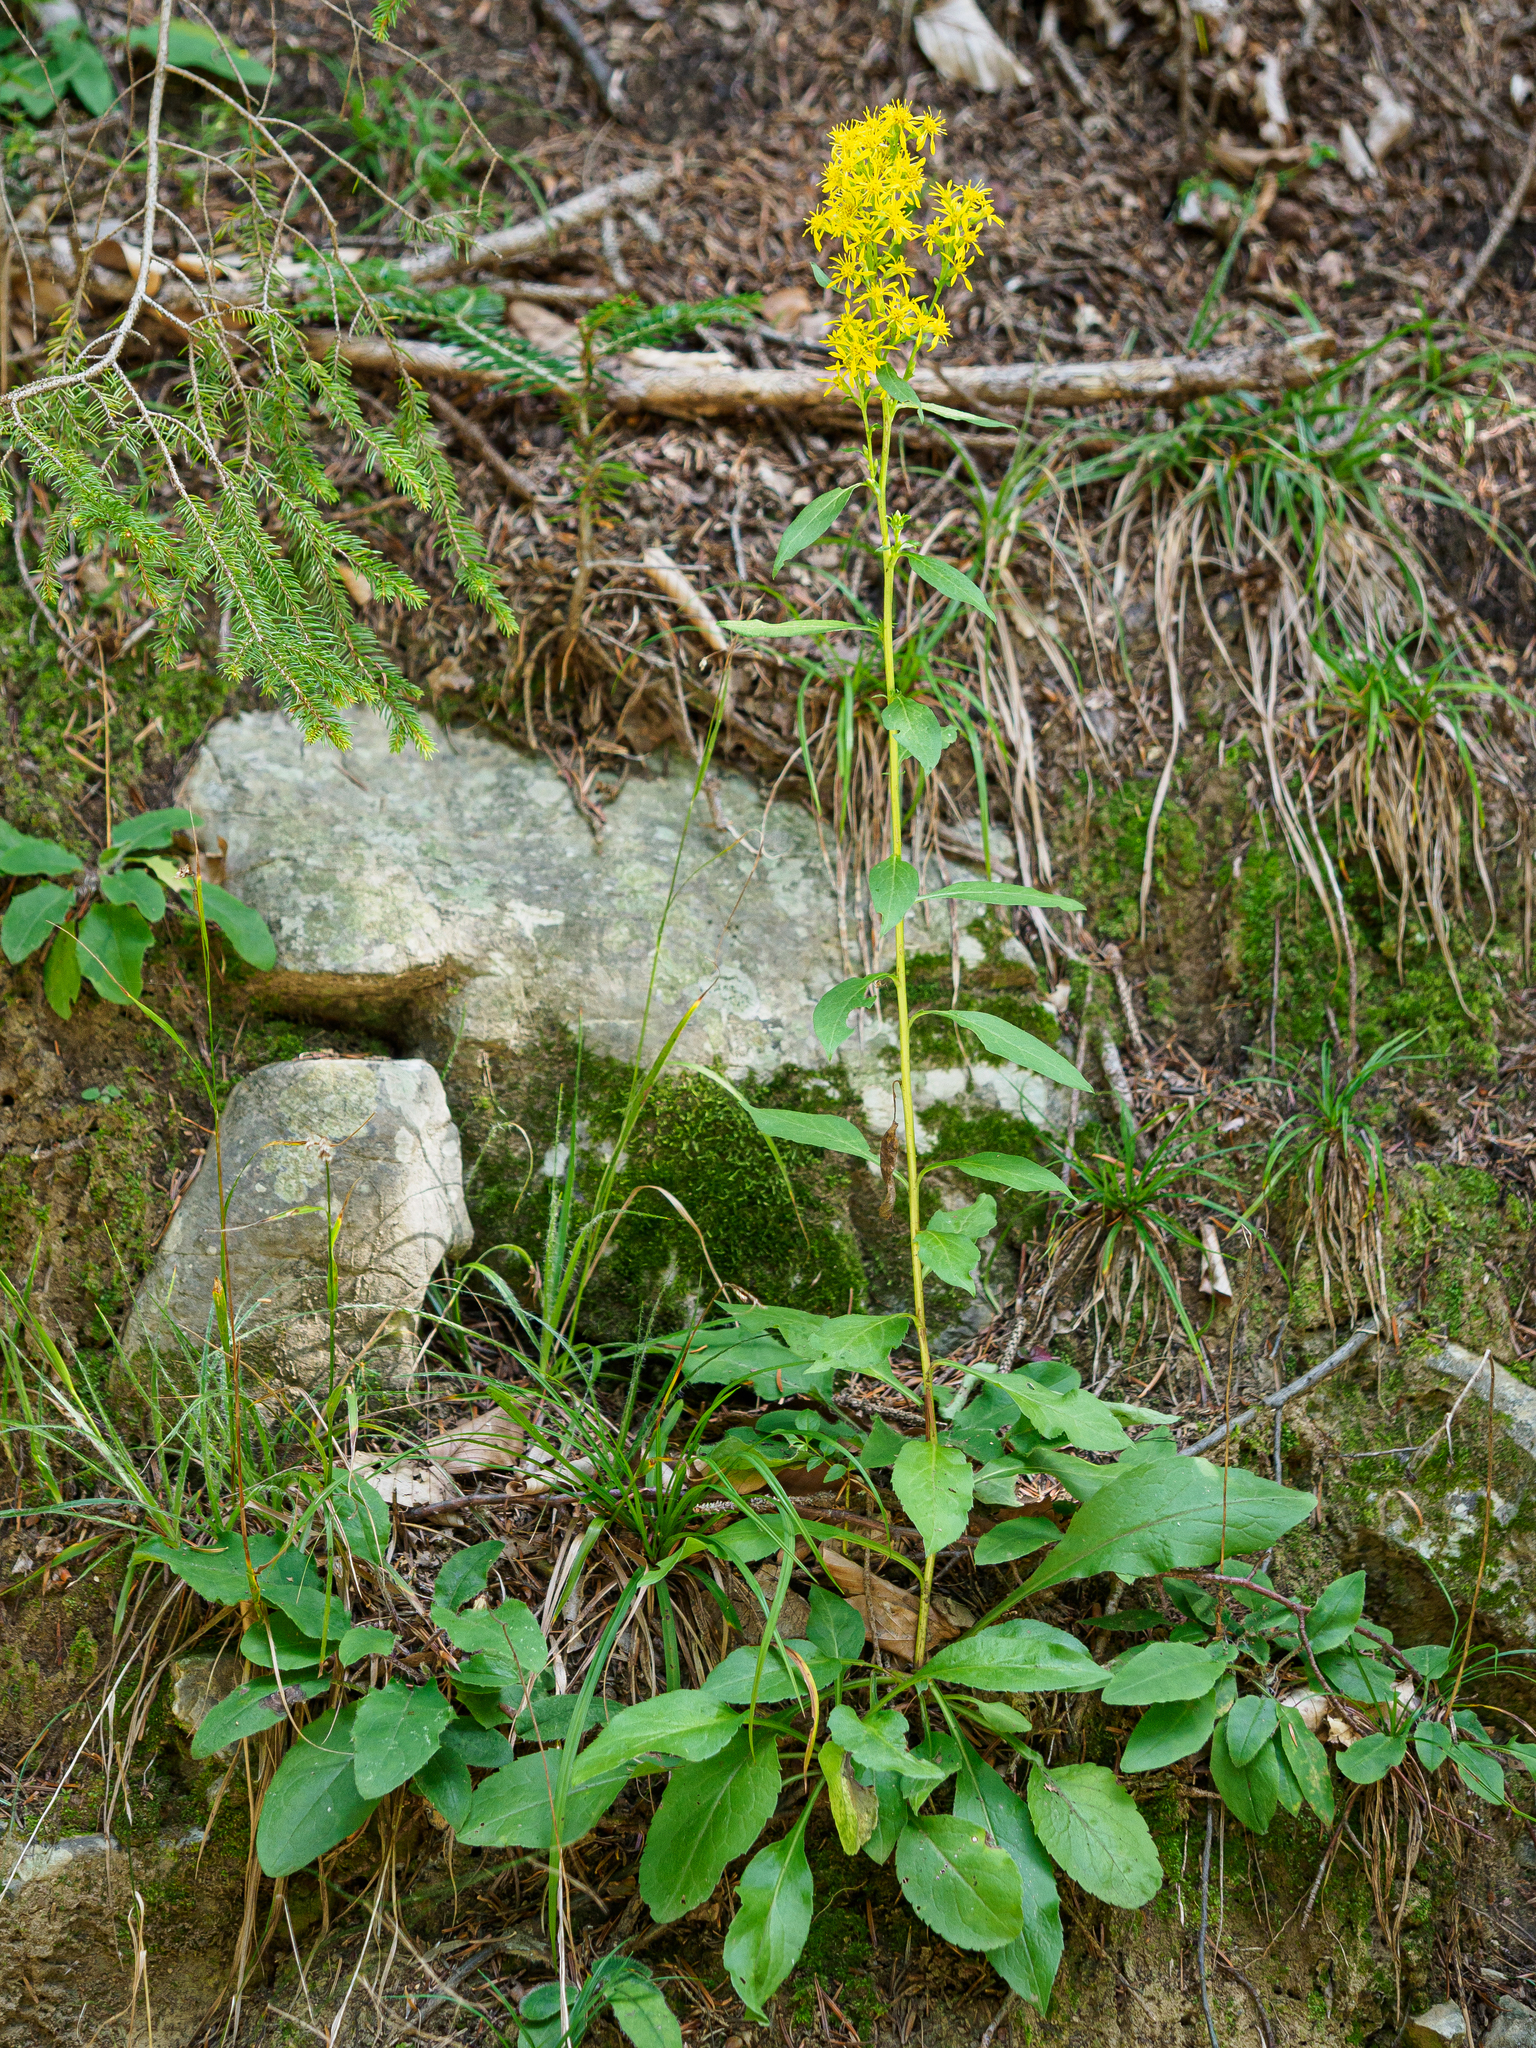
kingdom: Plantae
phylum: Tracheophyta
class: Magnoliopsida
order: Asterales
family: Asteraceae
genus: Solidago
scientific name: Solidago virgaurea
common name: Goldenrod
